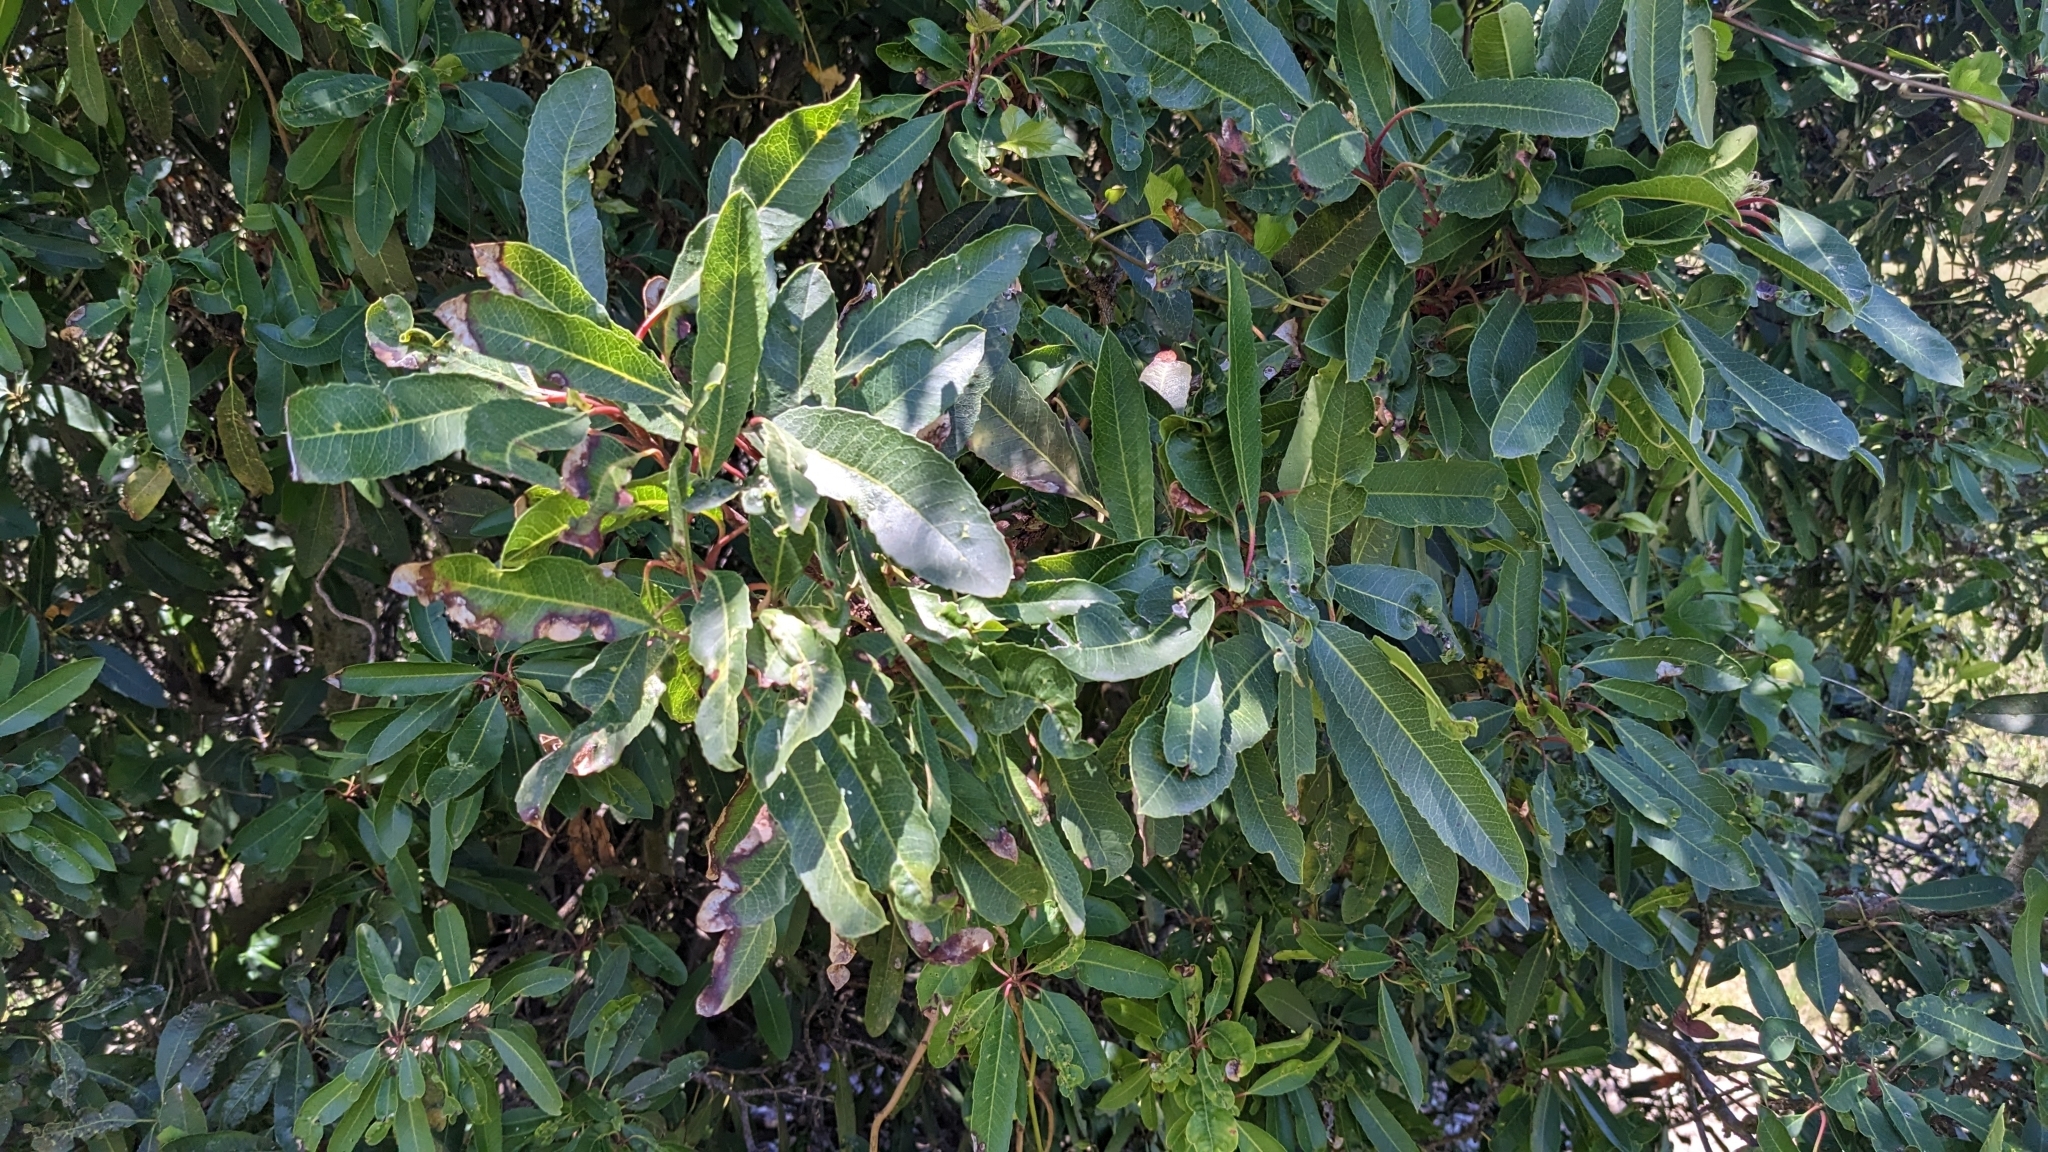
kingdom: Plantae
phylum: Tracheophyta
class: Magnoliopsida
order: Rosales
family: Rosaceae
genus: Heteromeles
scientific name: Heteromeles arbutifolia
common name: California-holly
